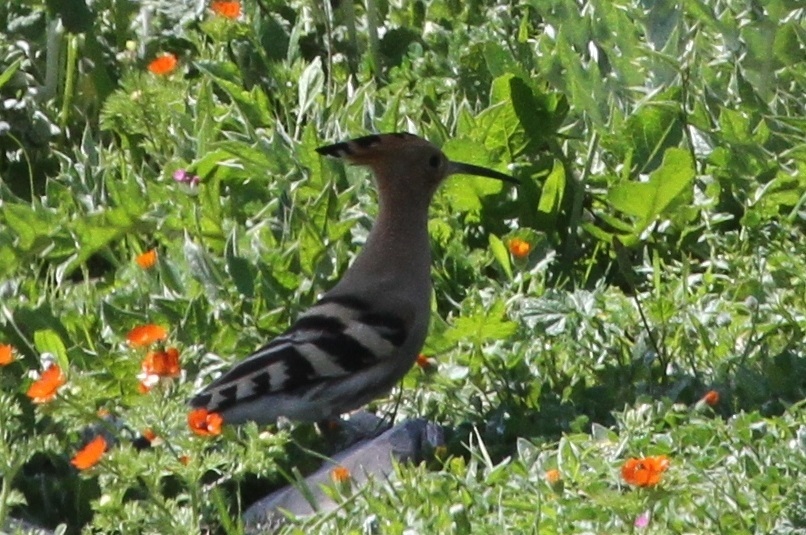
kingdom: Animalia
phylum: Chordata
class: Aves
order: Bucerotiformes
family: Upupidae
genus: Upupa
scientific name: Upupa epops
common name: Eurasian hoopoe
